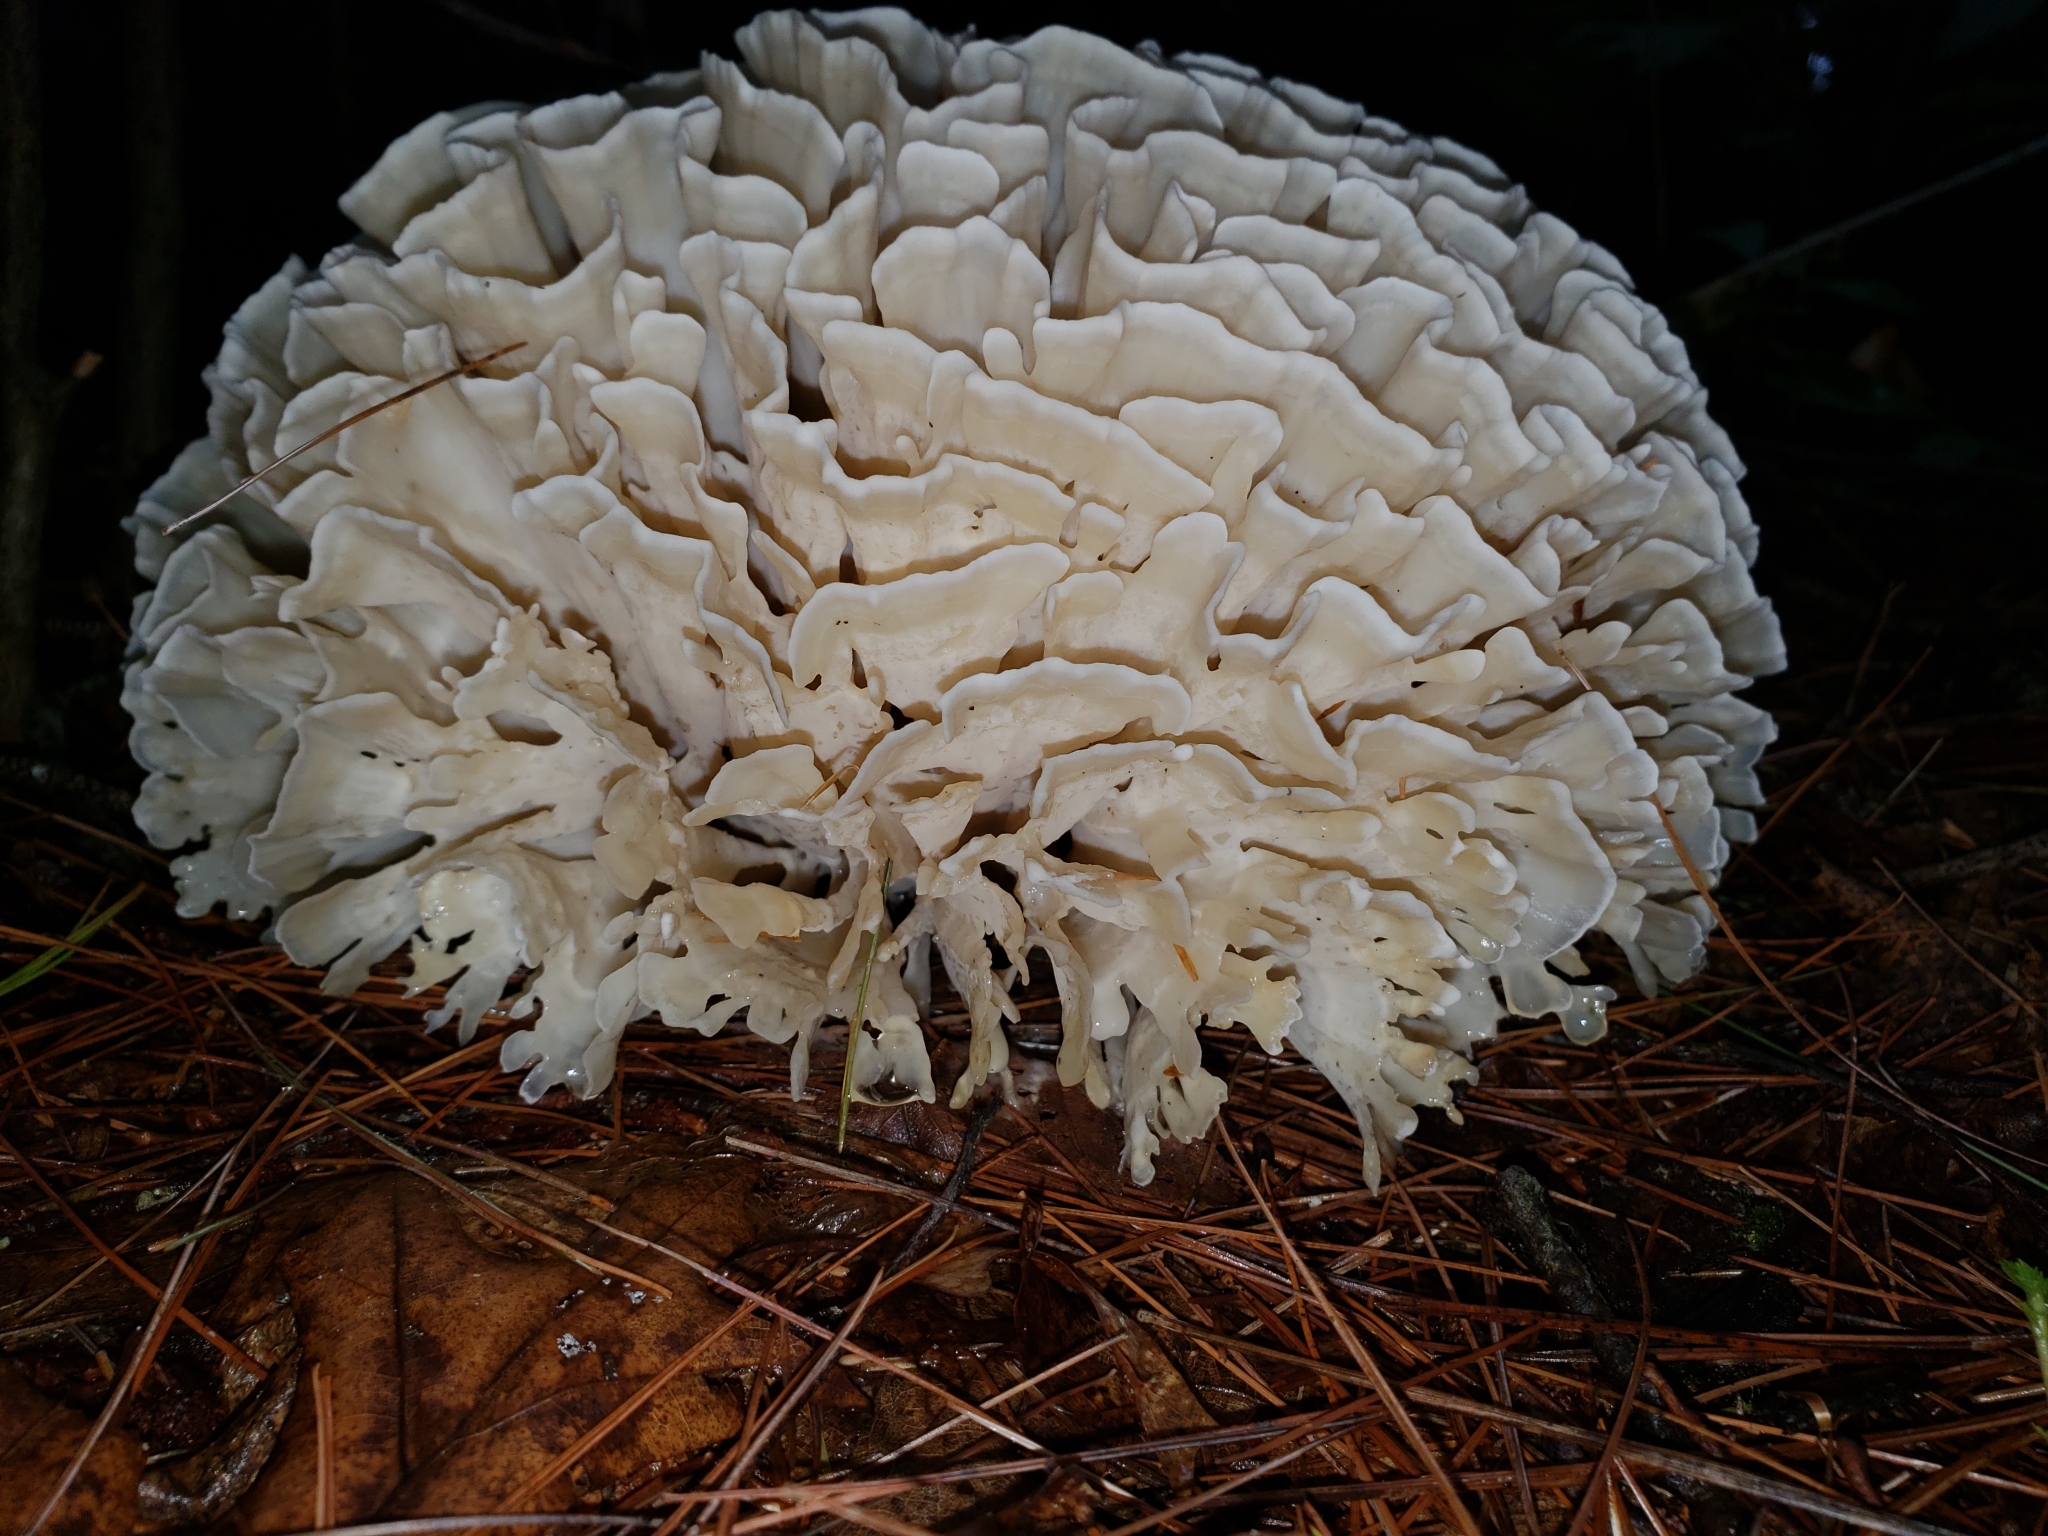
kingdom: Fungi
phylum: Basidiomycota
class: Agaricomycetes
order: Polyporales
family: Sparassidaceae
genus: Sparassis
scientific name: Sparassis spathulata
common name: Eastern cauliflower mushroom
